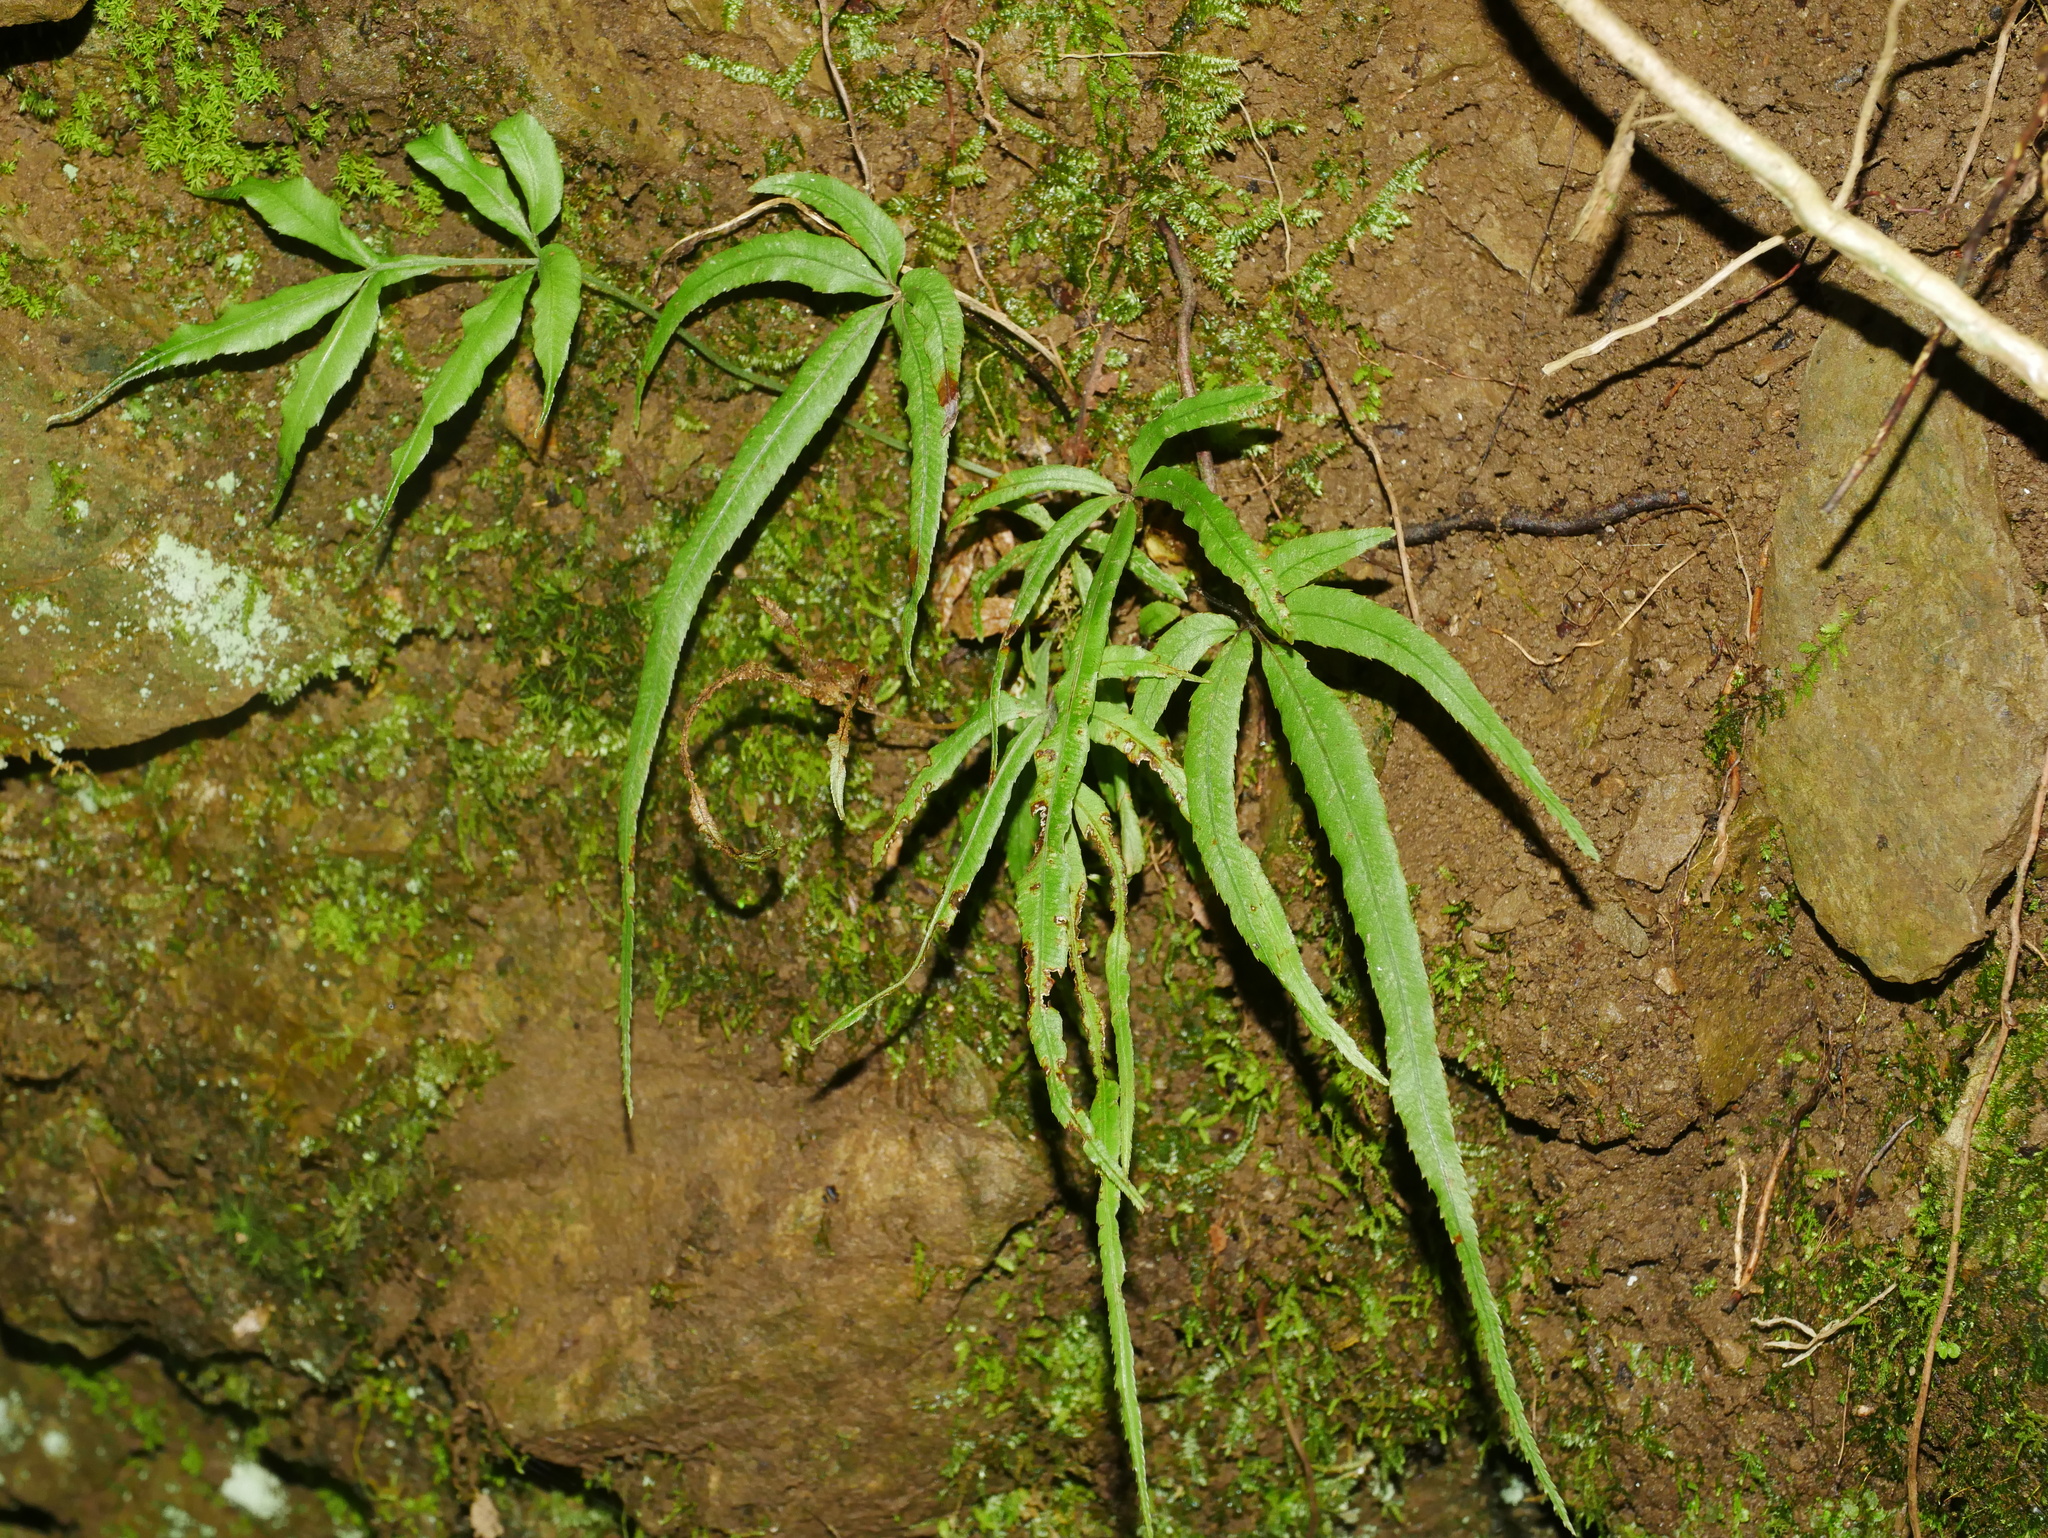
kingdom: Plantae
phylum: Tracheophyta
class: Polypodiopsida
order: Polypodiales
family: Pteridaceae
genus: Pteris
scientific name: Pteris cretica
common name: Ribbon fern
